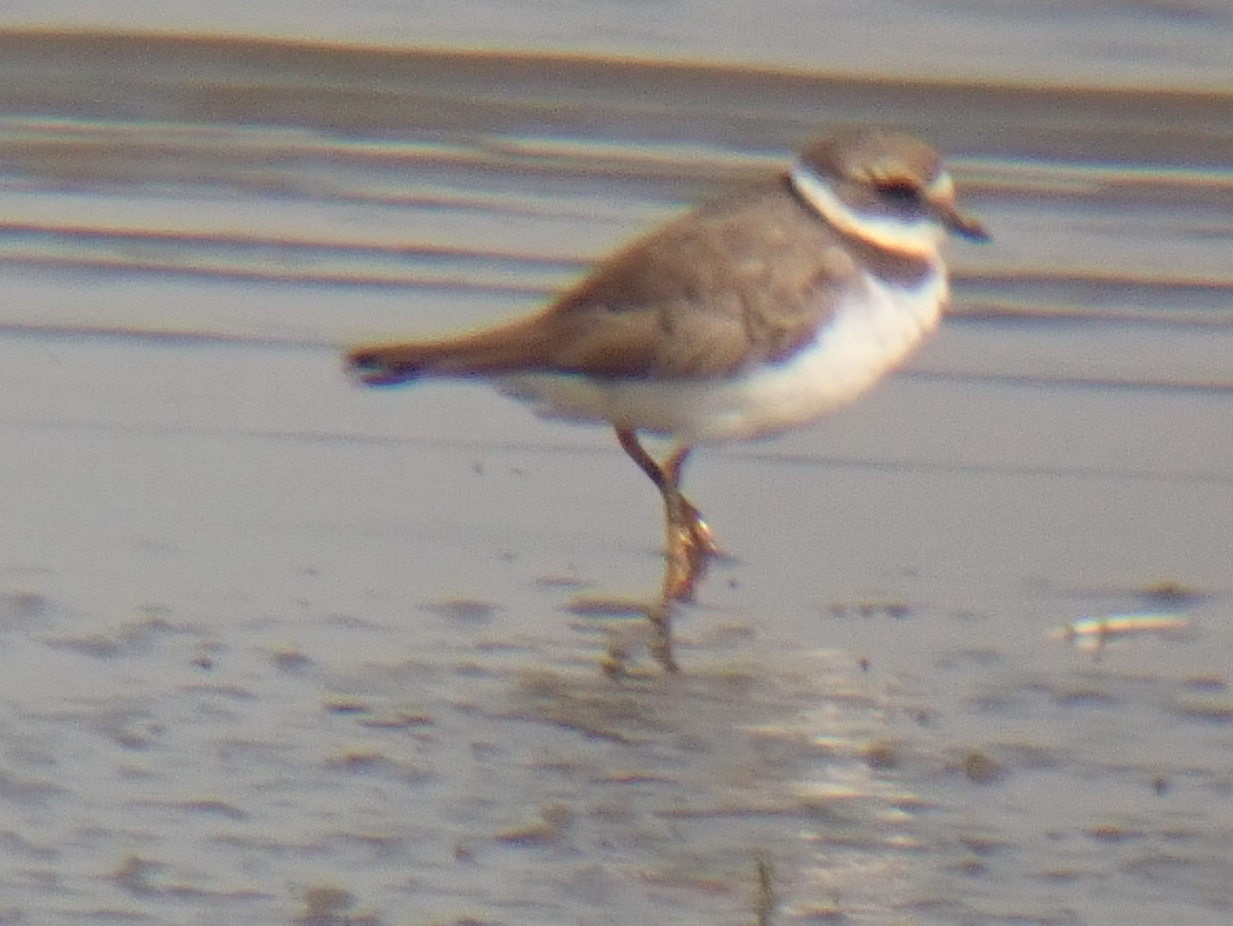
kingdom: Animalia
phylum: Chordata
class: Aves
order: Charadriiformes
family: Charadriidae
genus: Charadrius
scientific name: Charadrius hiaticula
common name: Common ringed plover
